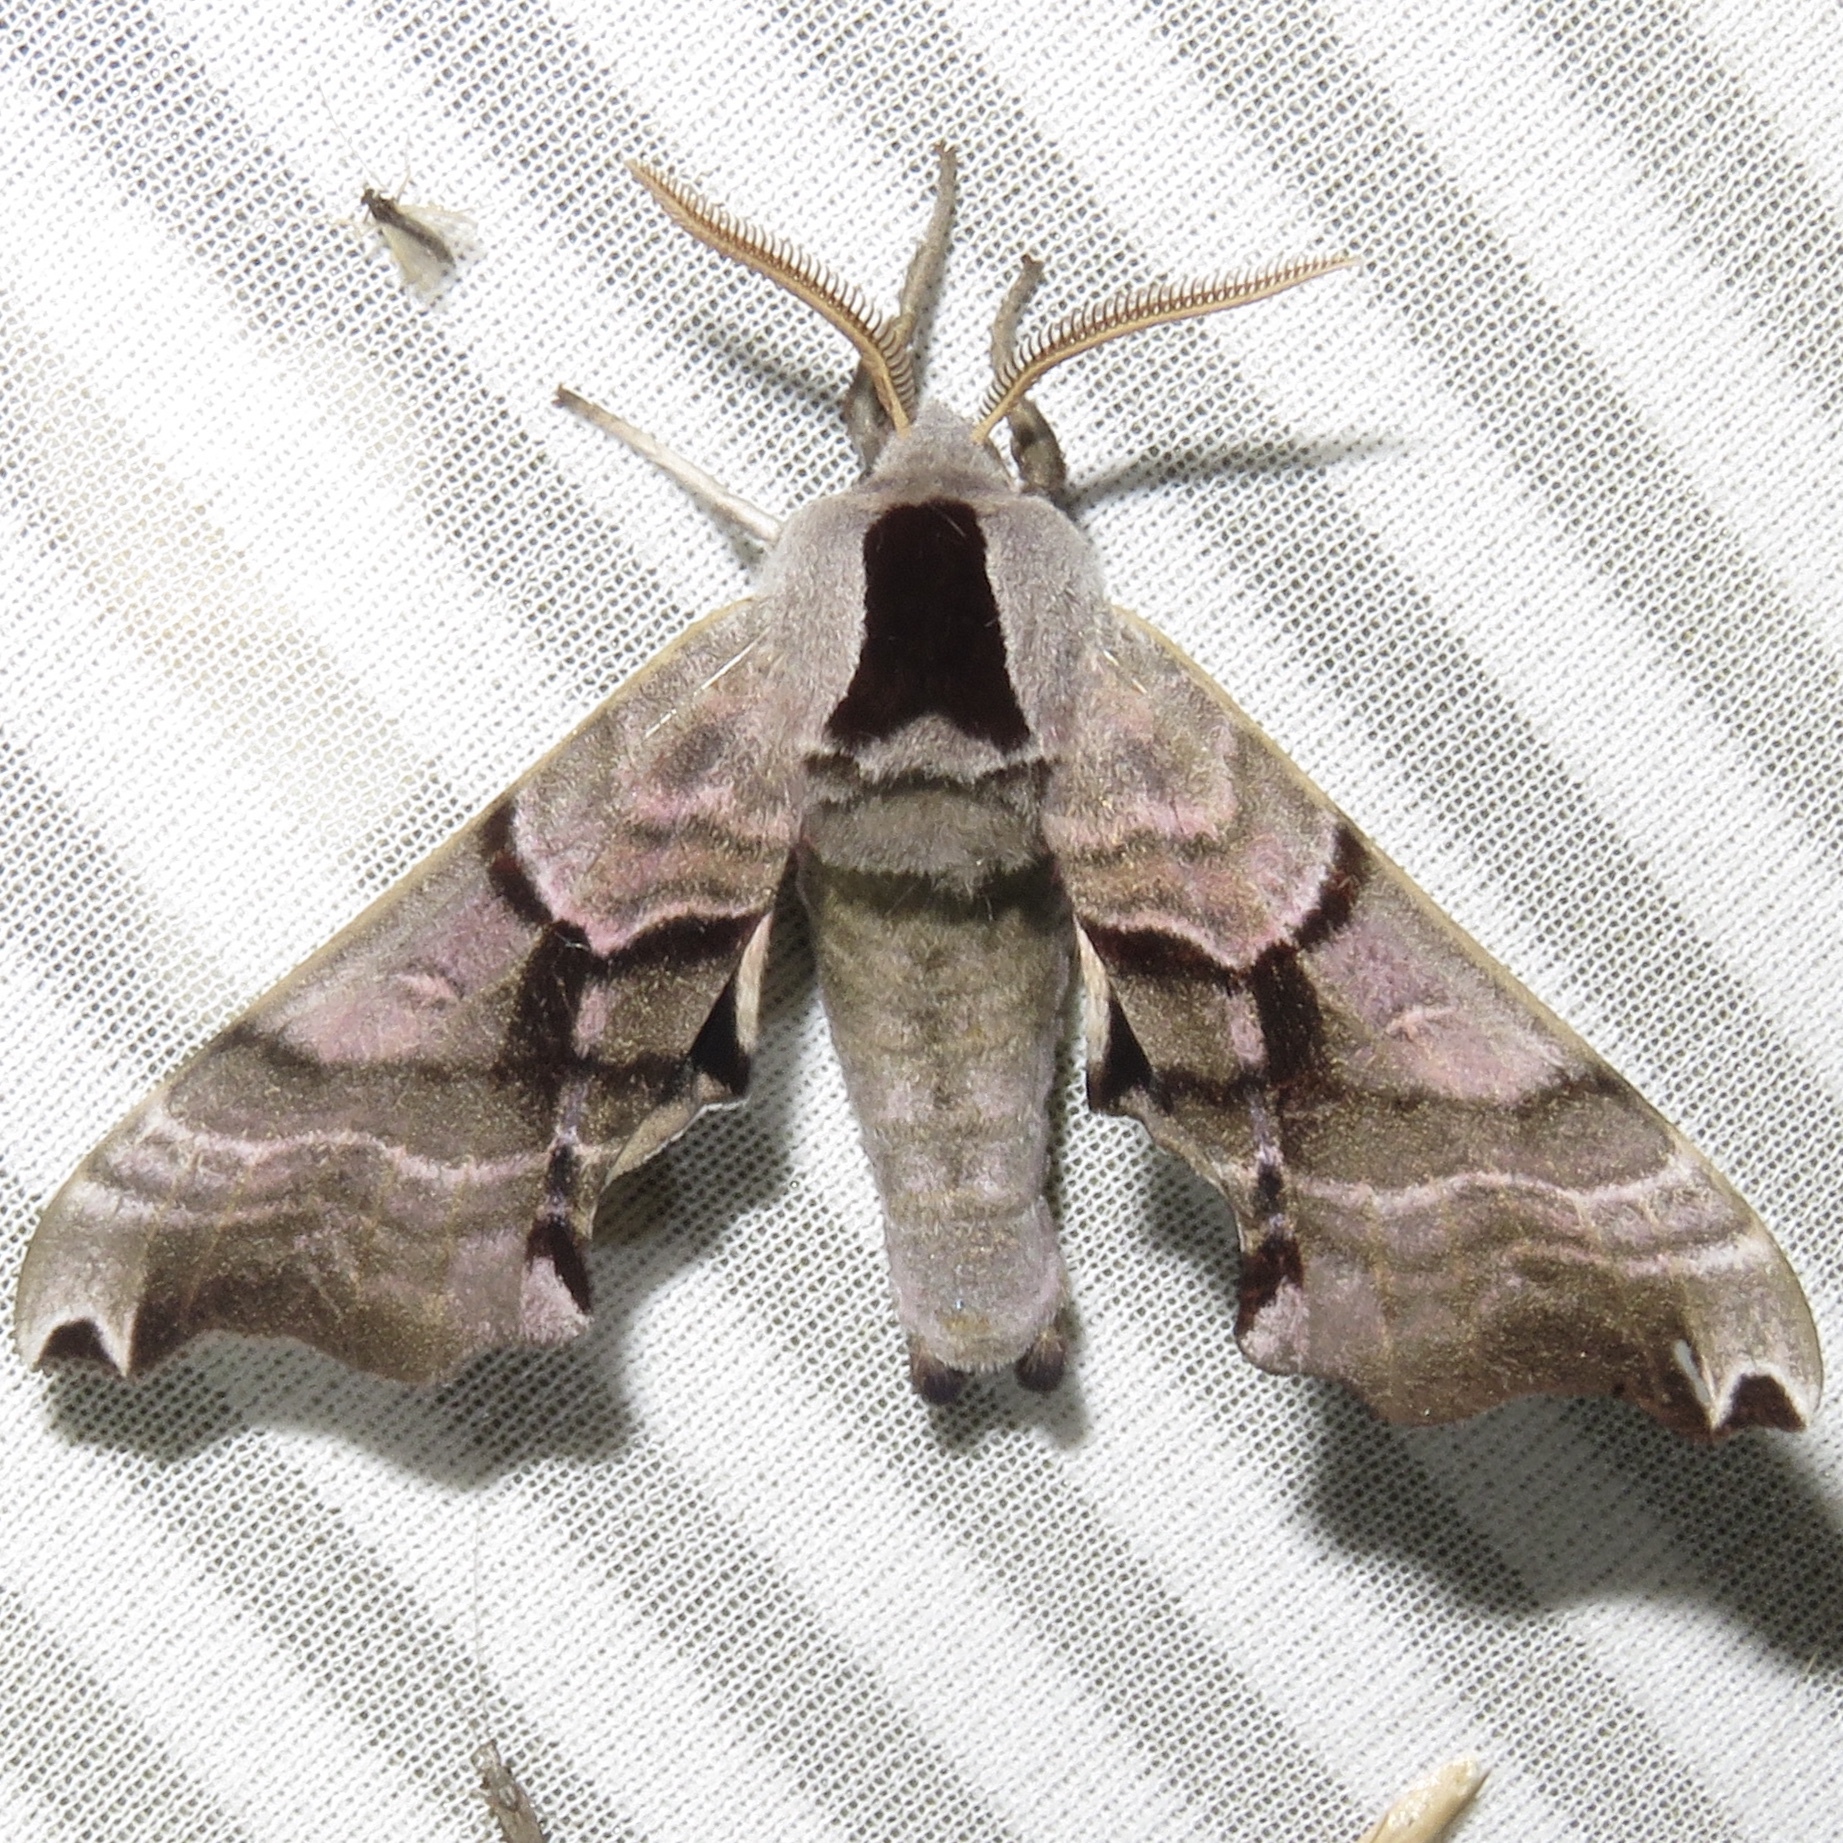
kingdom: Animalia
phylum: Arthropoda
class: Insecta
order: Lepidoptera
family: Sphingidae
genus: Smerinthus
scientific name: Smerinthus jamaicensis
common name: Twin spotted sphinx
